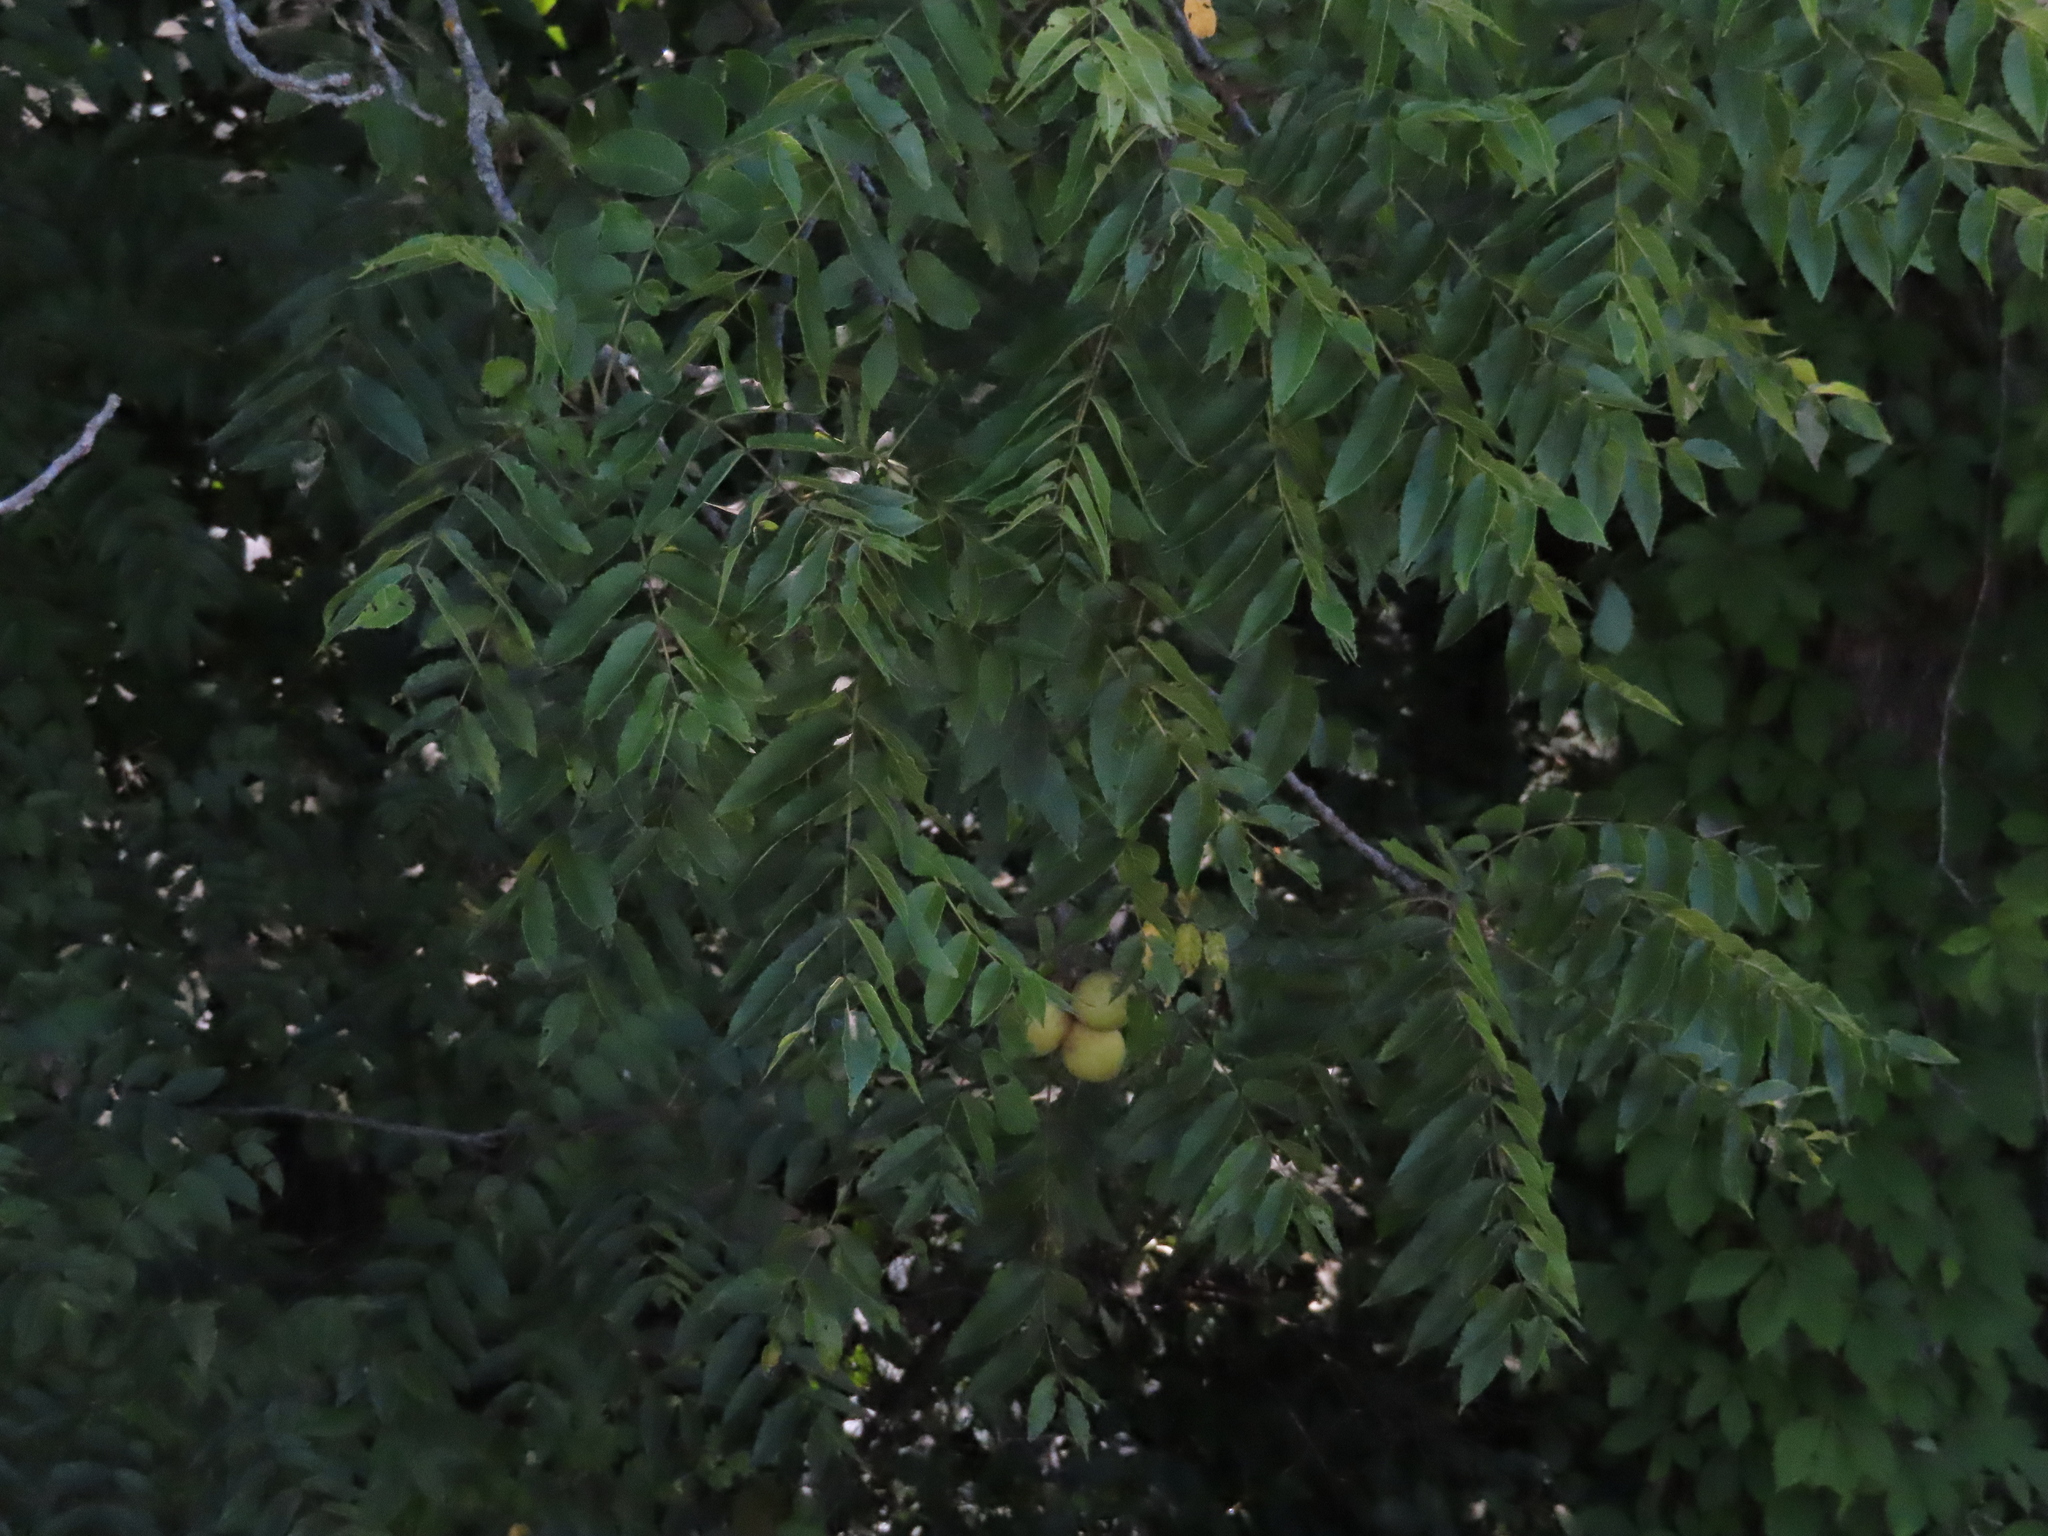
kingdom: Plantae
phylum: Tracheophyta
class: Magnoliopsida
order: Fagales
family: Juglandaceae
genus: Juglans
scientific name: Juglans nigra
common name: Black walnut
